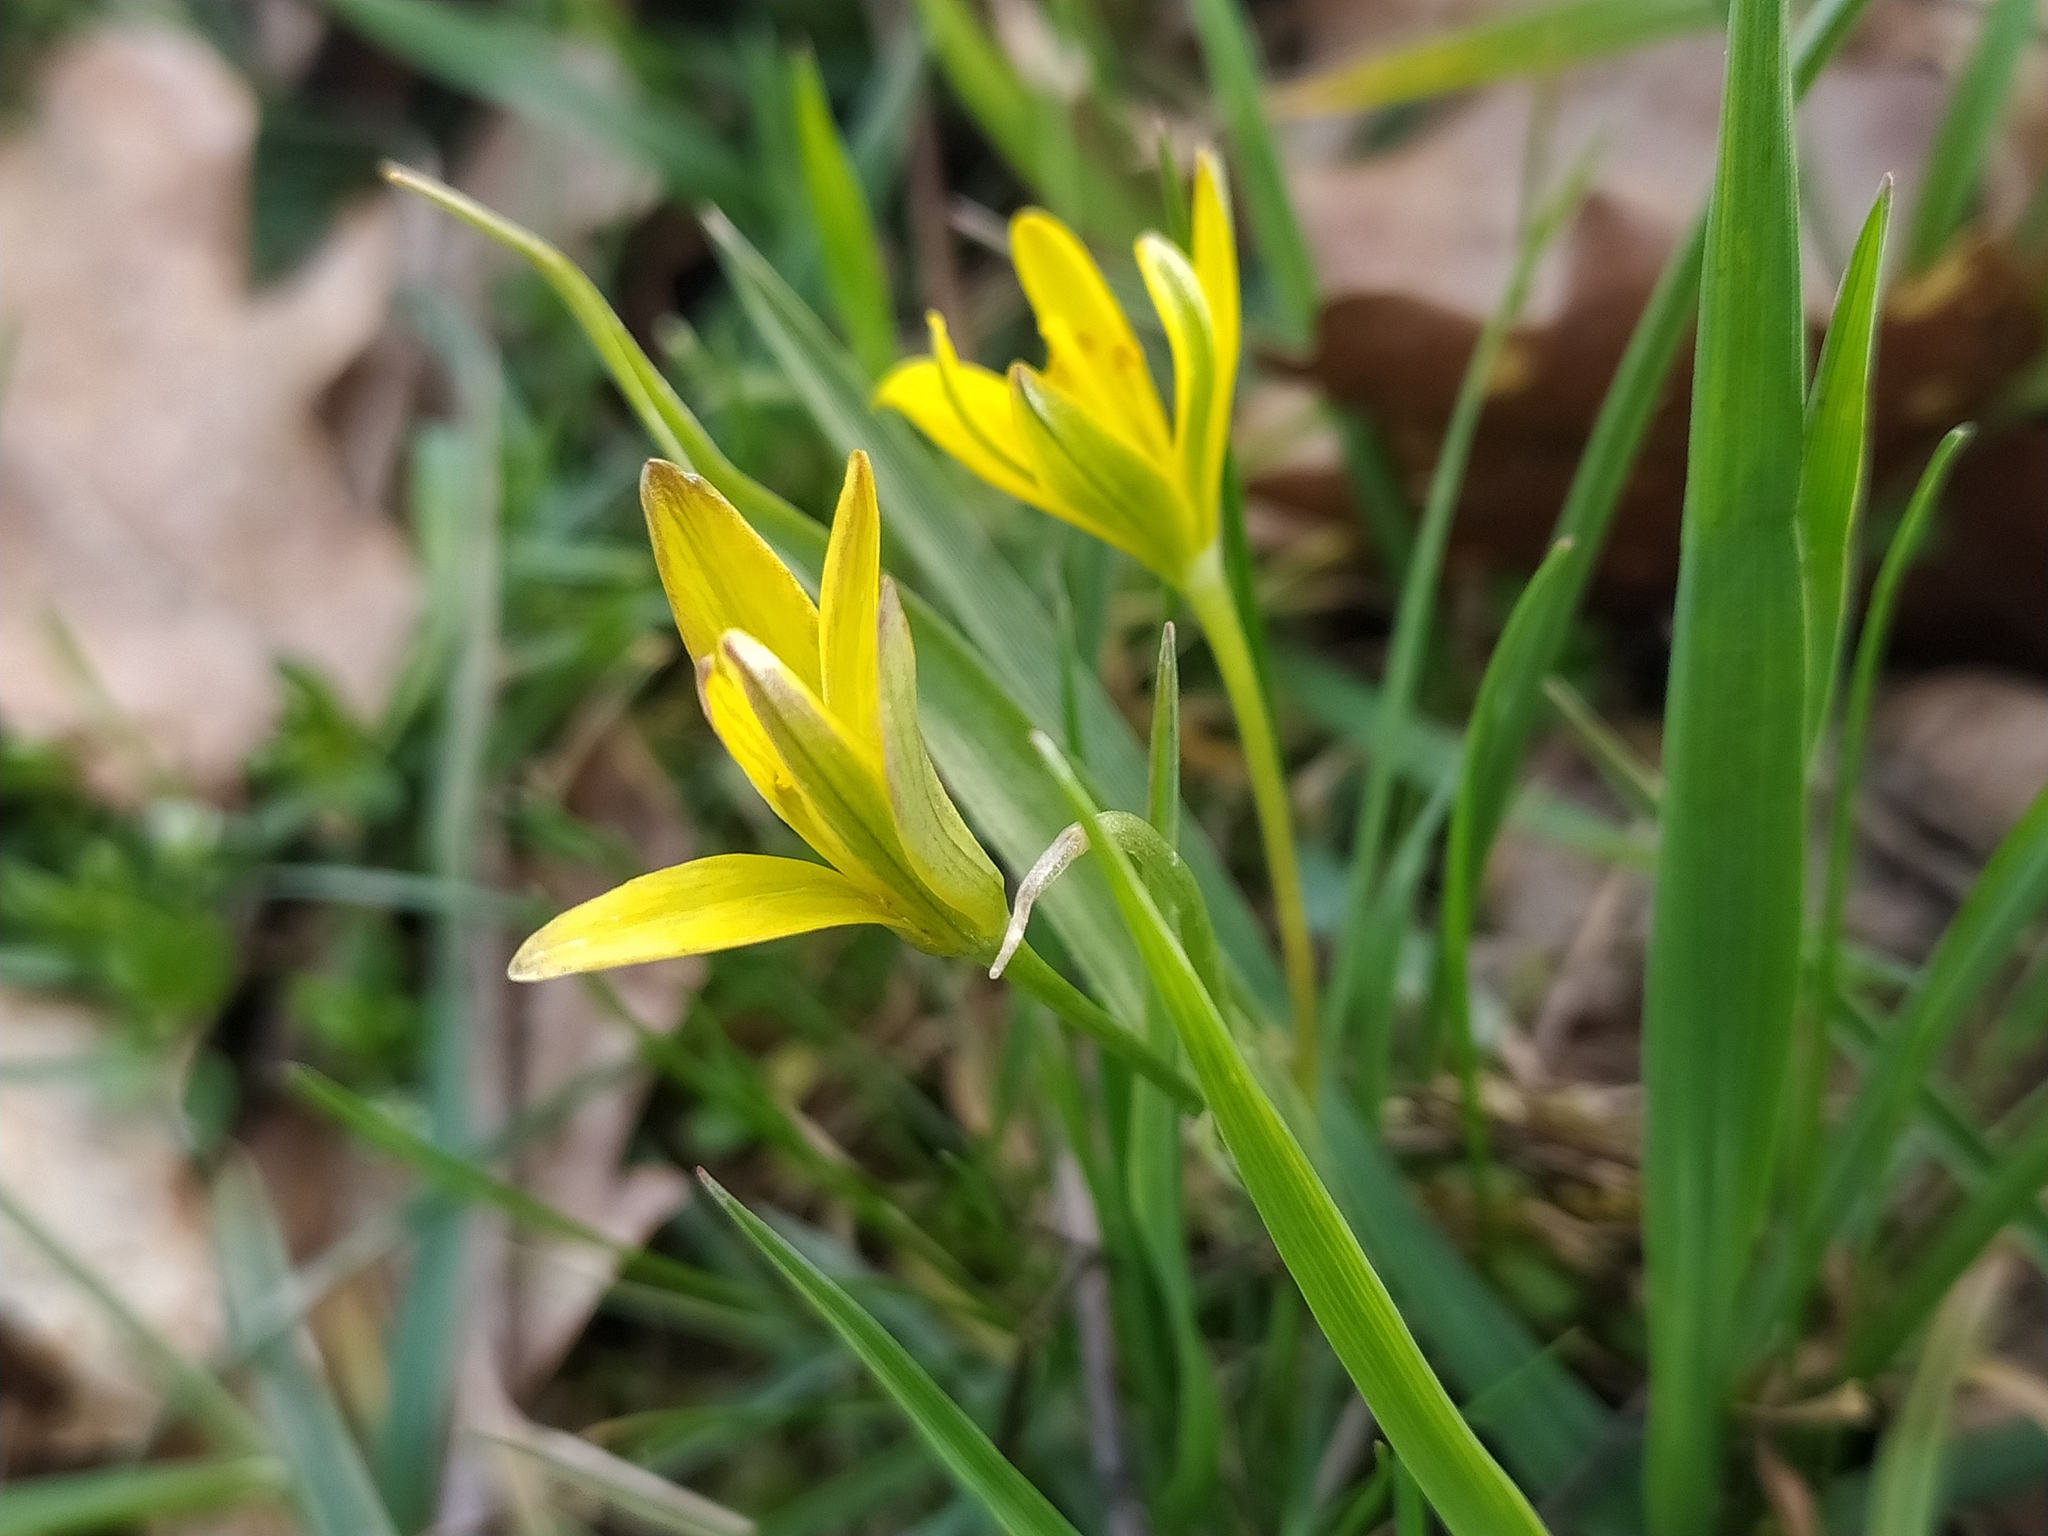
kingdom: Plantae
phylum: Tracheophyta
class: Liliopsida
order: Liliales
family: Liliaceae
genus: Gagea
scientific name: Gagea pratensis
